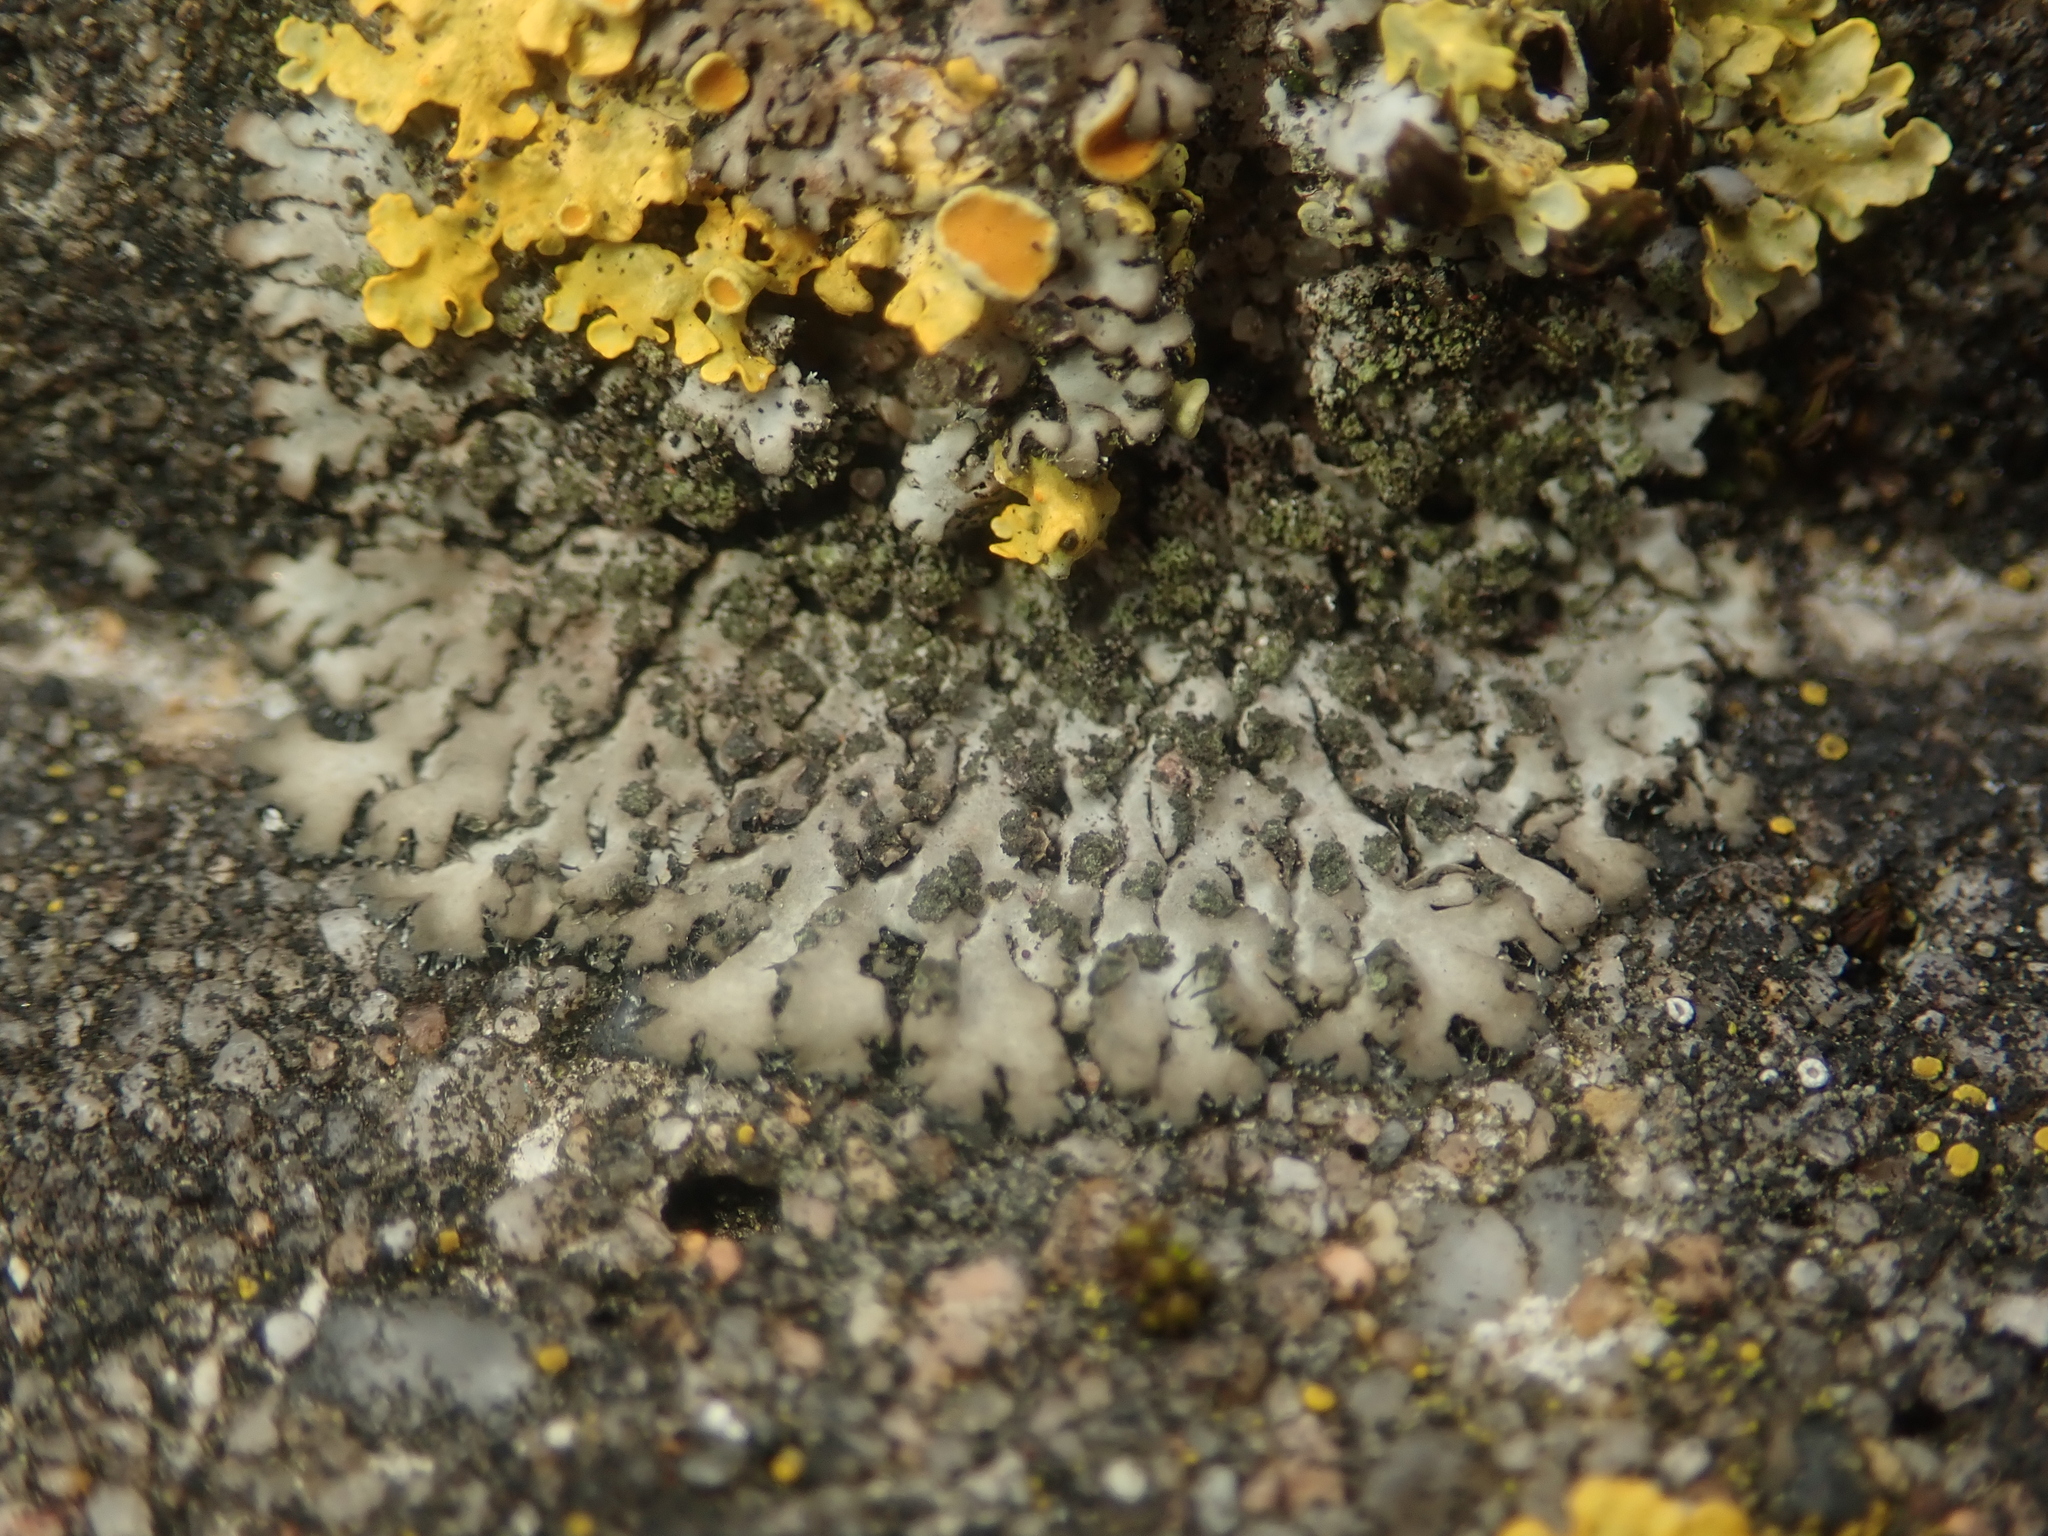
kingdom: Fungi
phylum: Ascomycota
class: Lecanoromycetes
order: Caliciales
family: Physciaceae
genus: Phaeophyscia
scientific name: Phaeophyscia orbicularis
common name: Mealy shadow lichen
